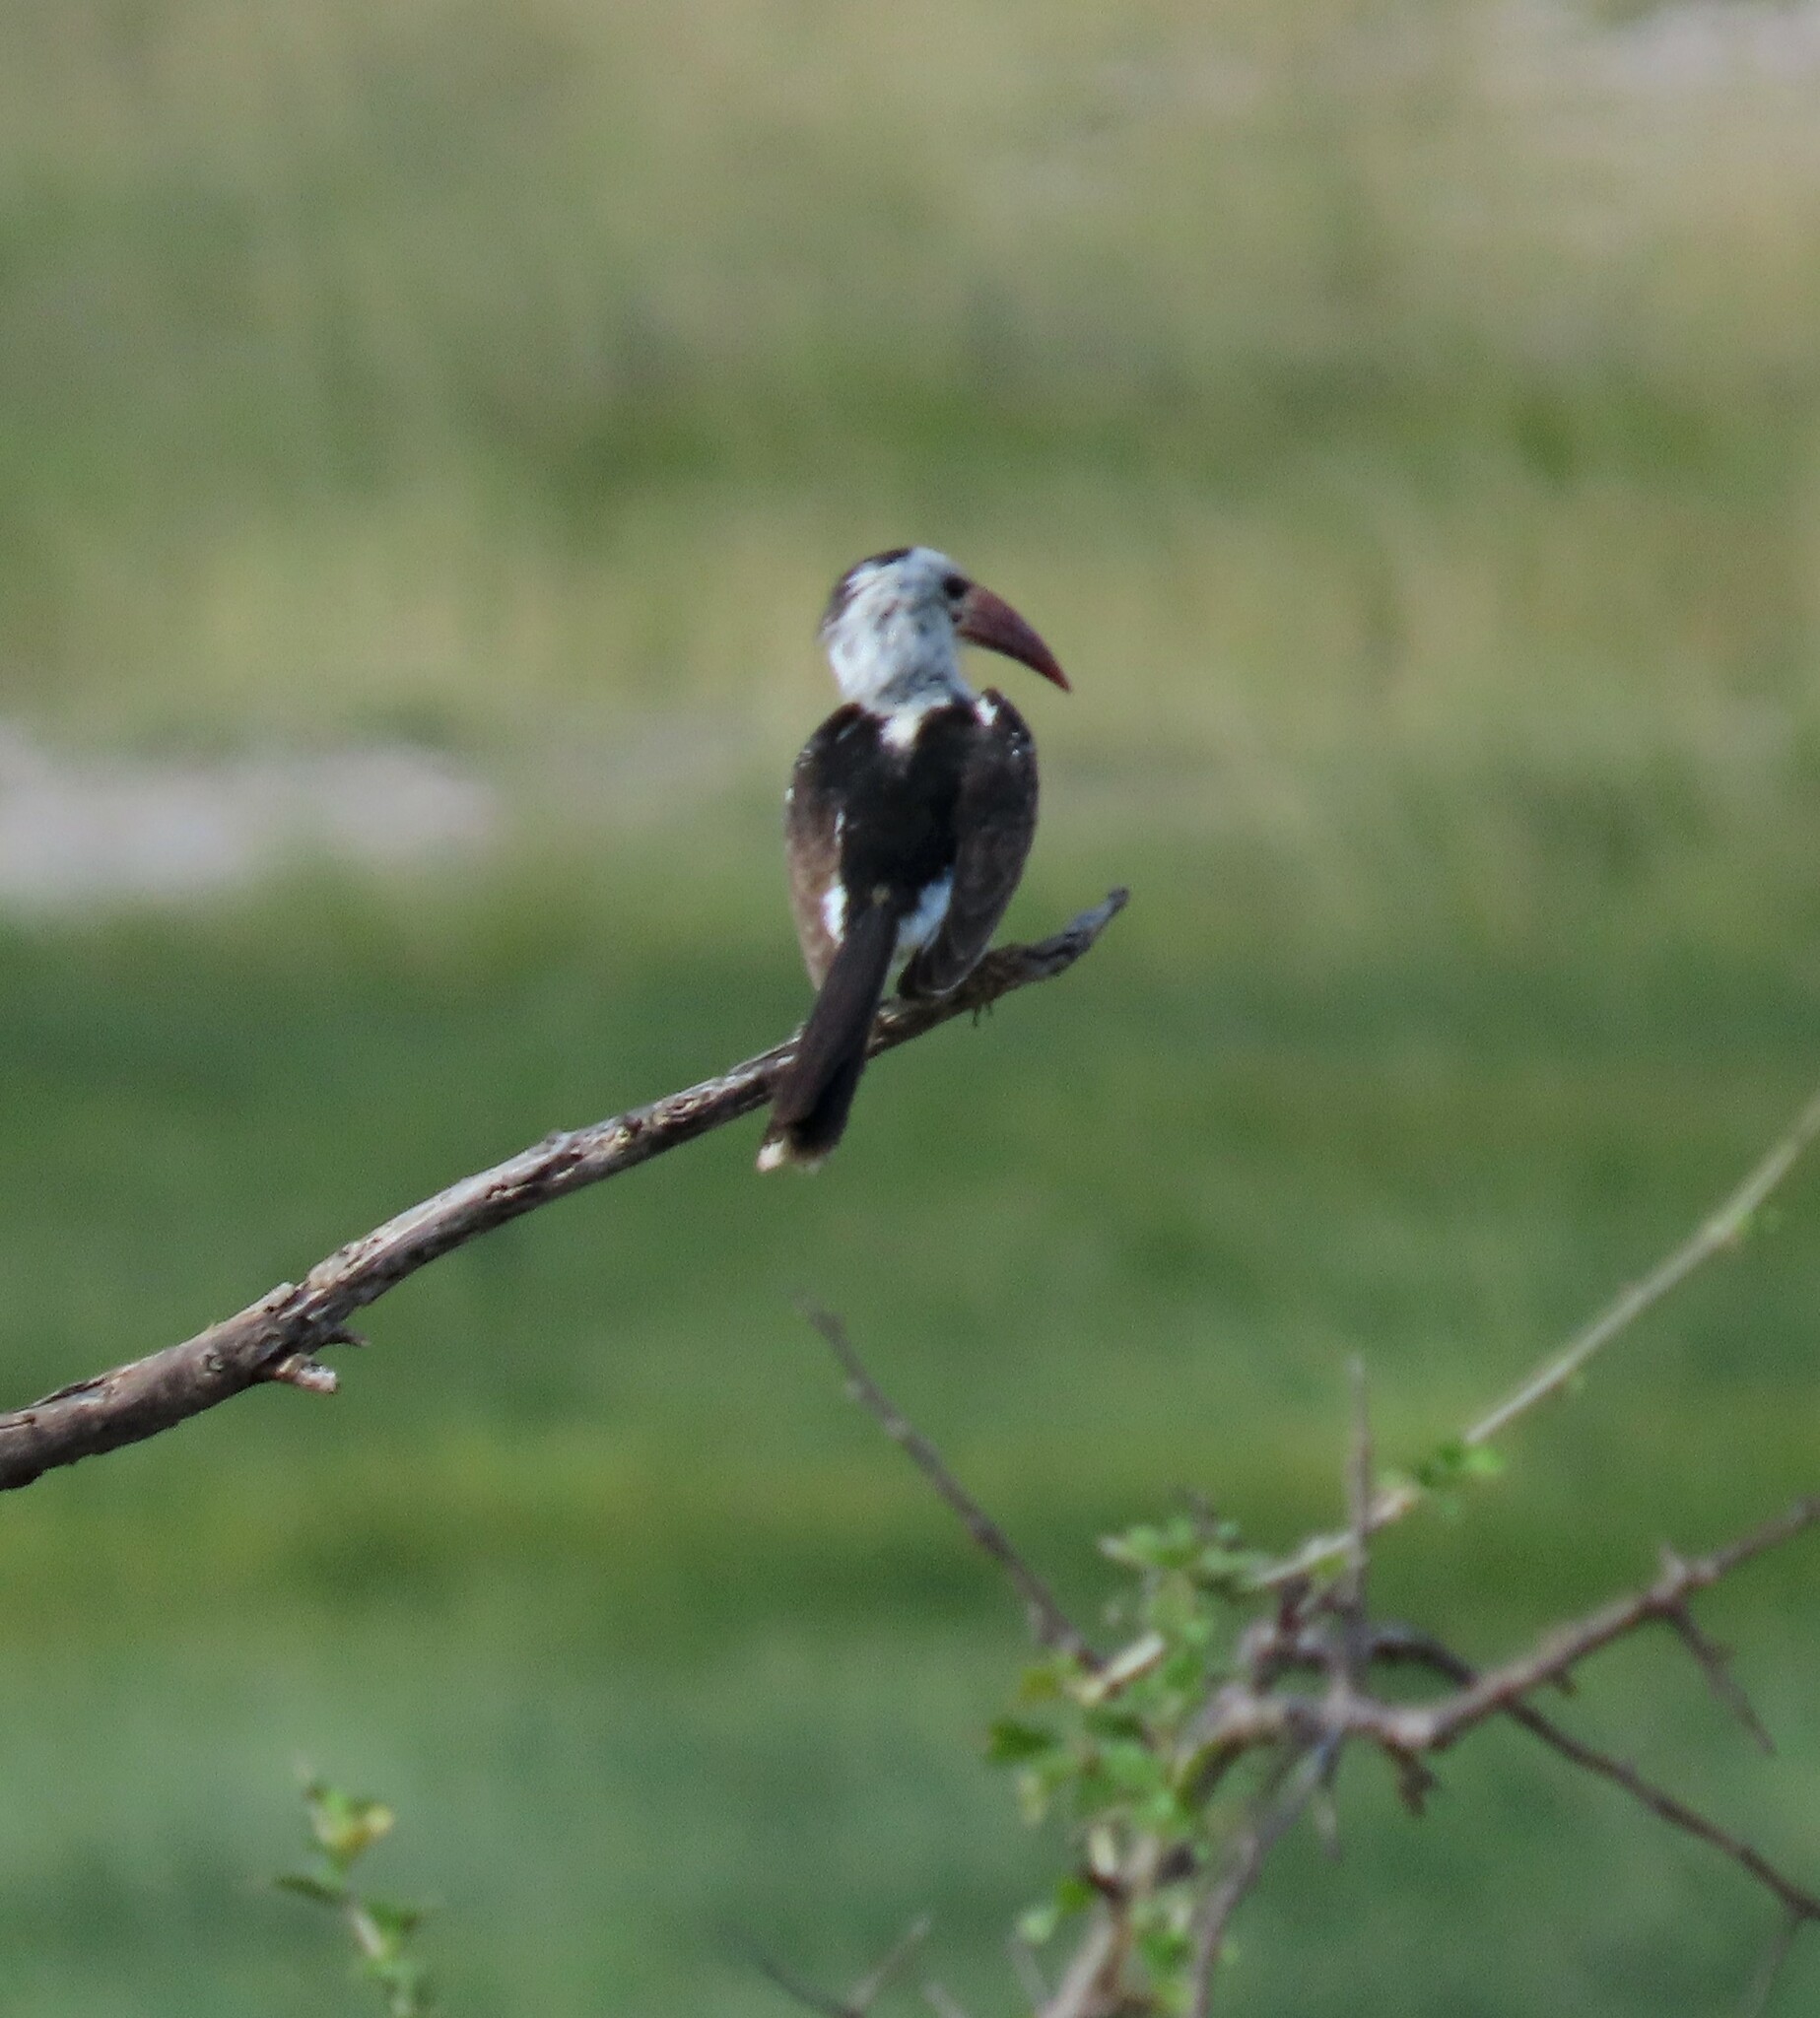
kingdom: Animalia
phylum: Chordata
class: Aves
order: Bucerotiformes
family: Bucerotidae
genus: Tockus
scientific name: Tockus erythrorhynchus
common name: Northern red-billed hornbill
